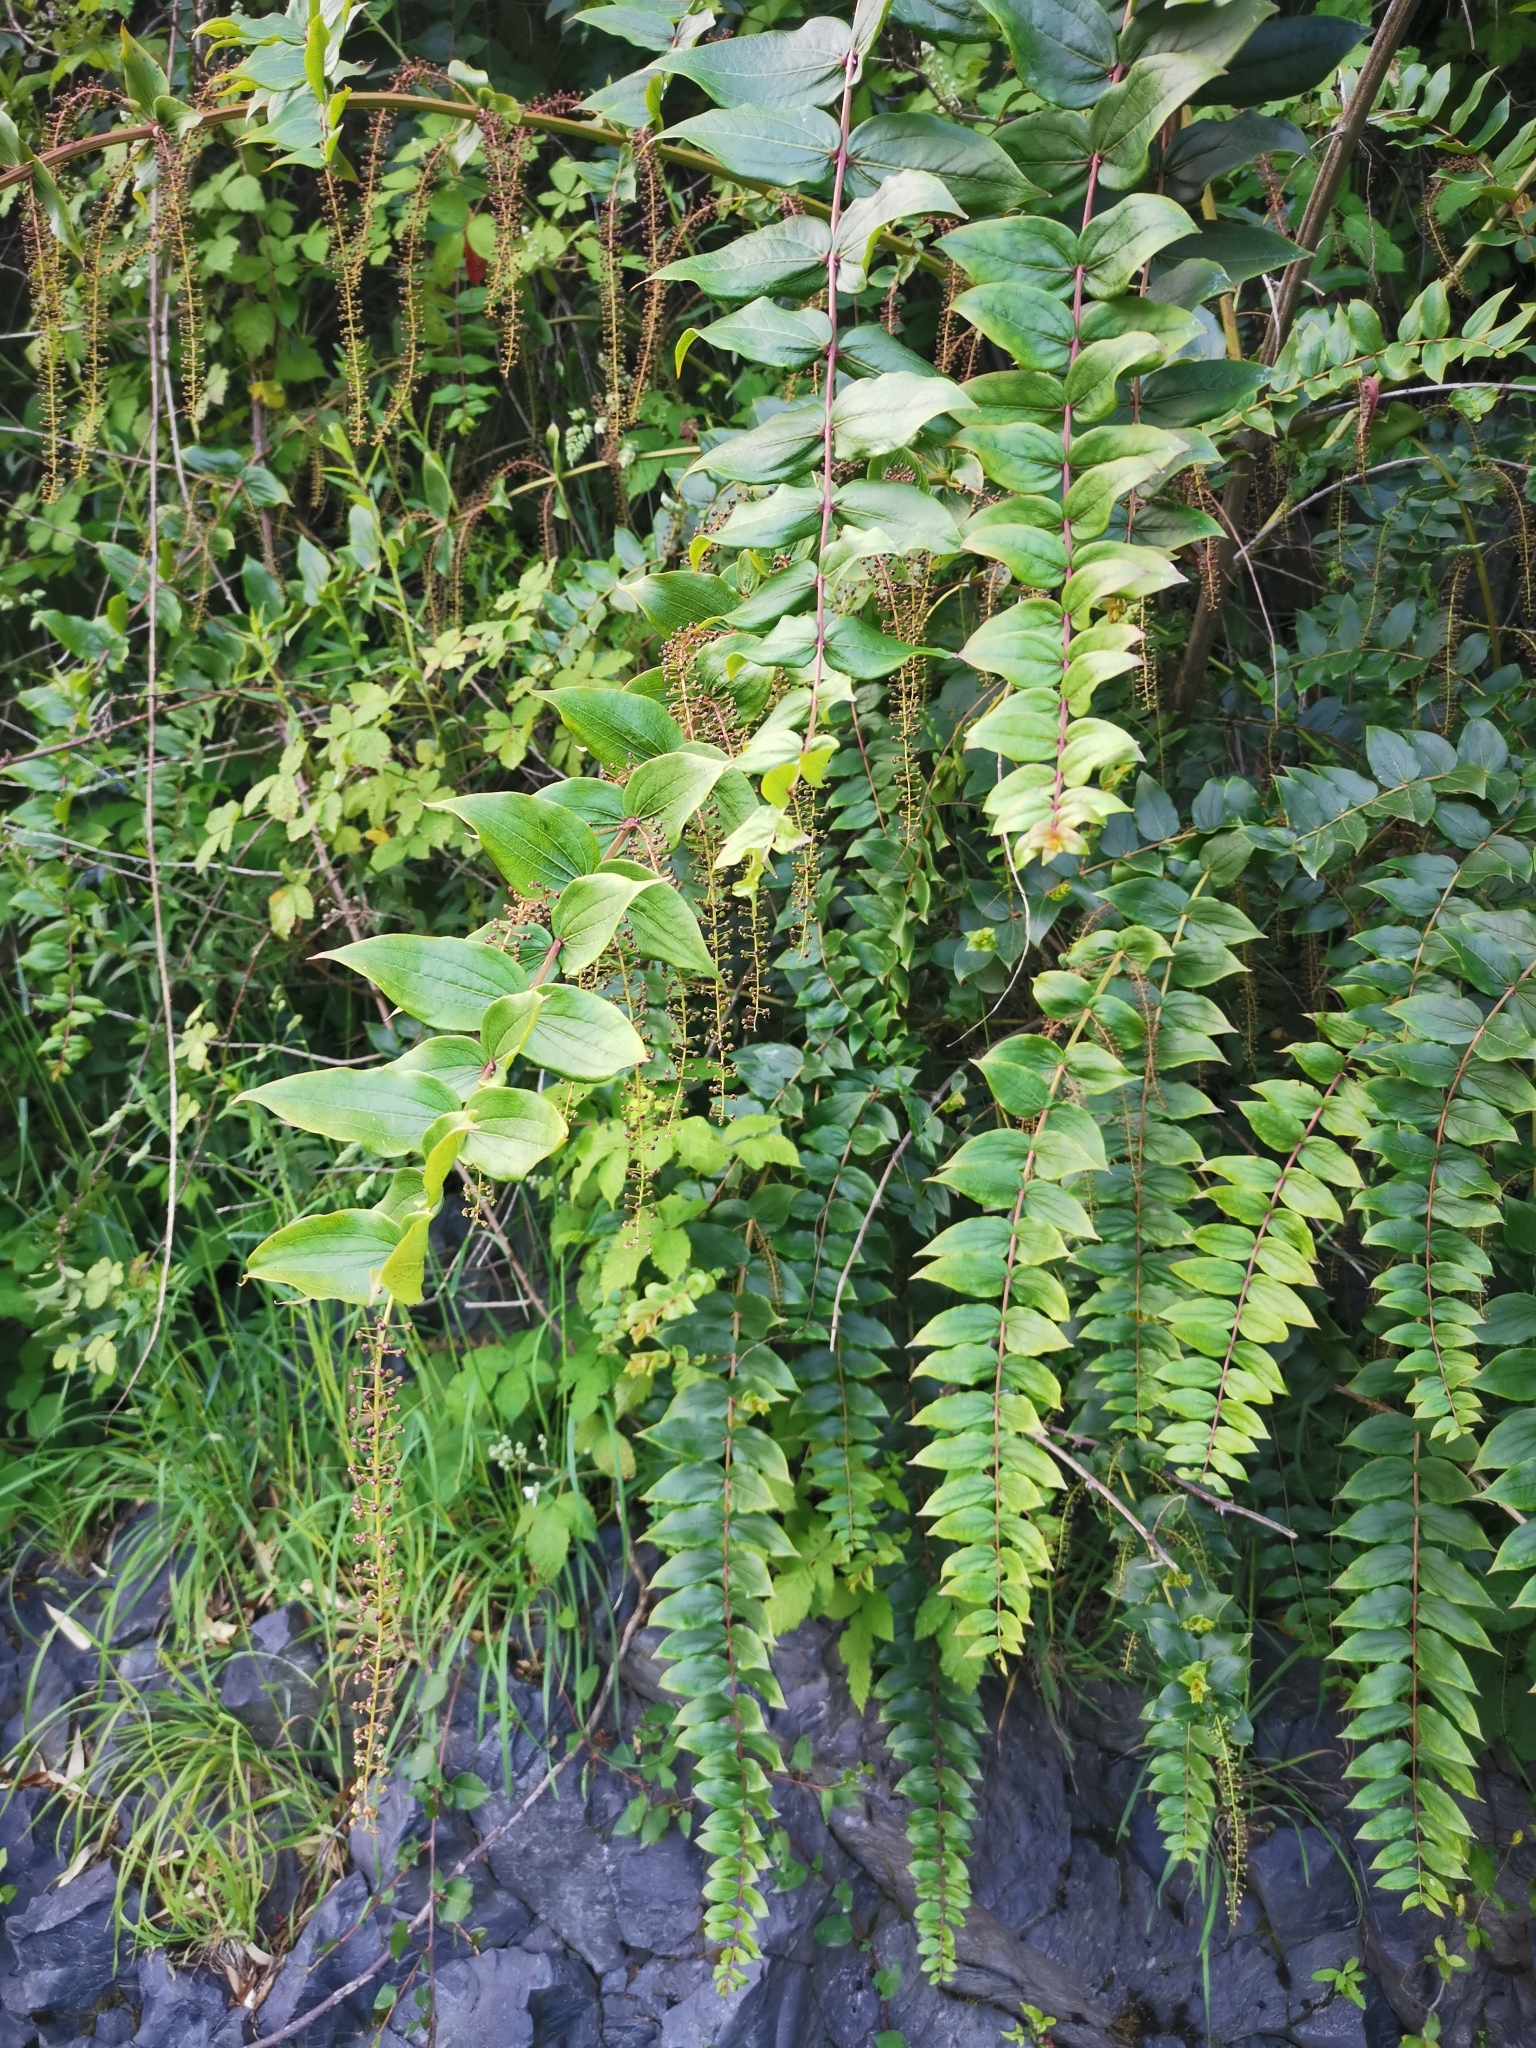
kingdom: Plantae
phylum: Tracheophyta
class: Magnoliopsida
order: Cucurbitales
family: Coriariaceae
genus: Coriaria
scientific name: Coriaria ruscifolia
